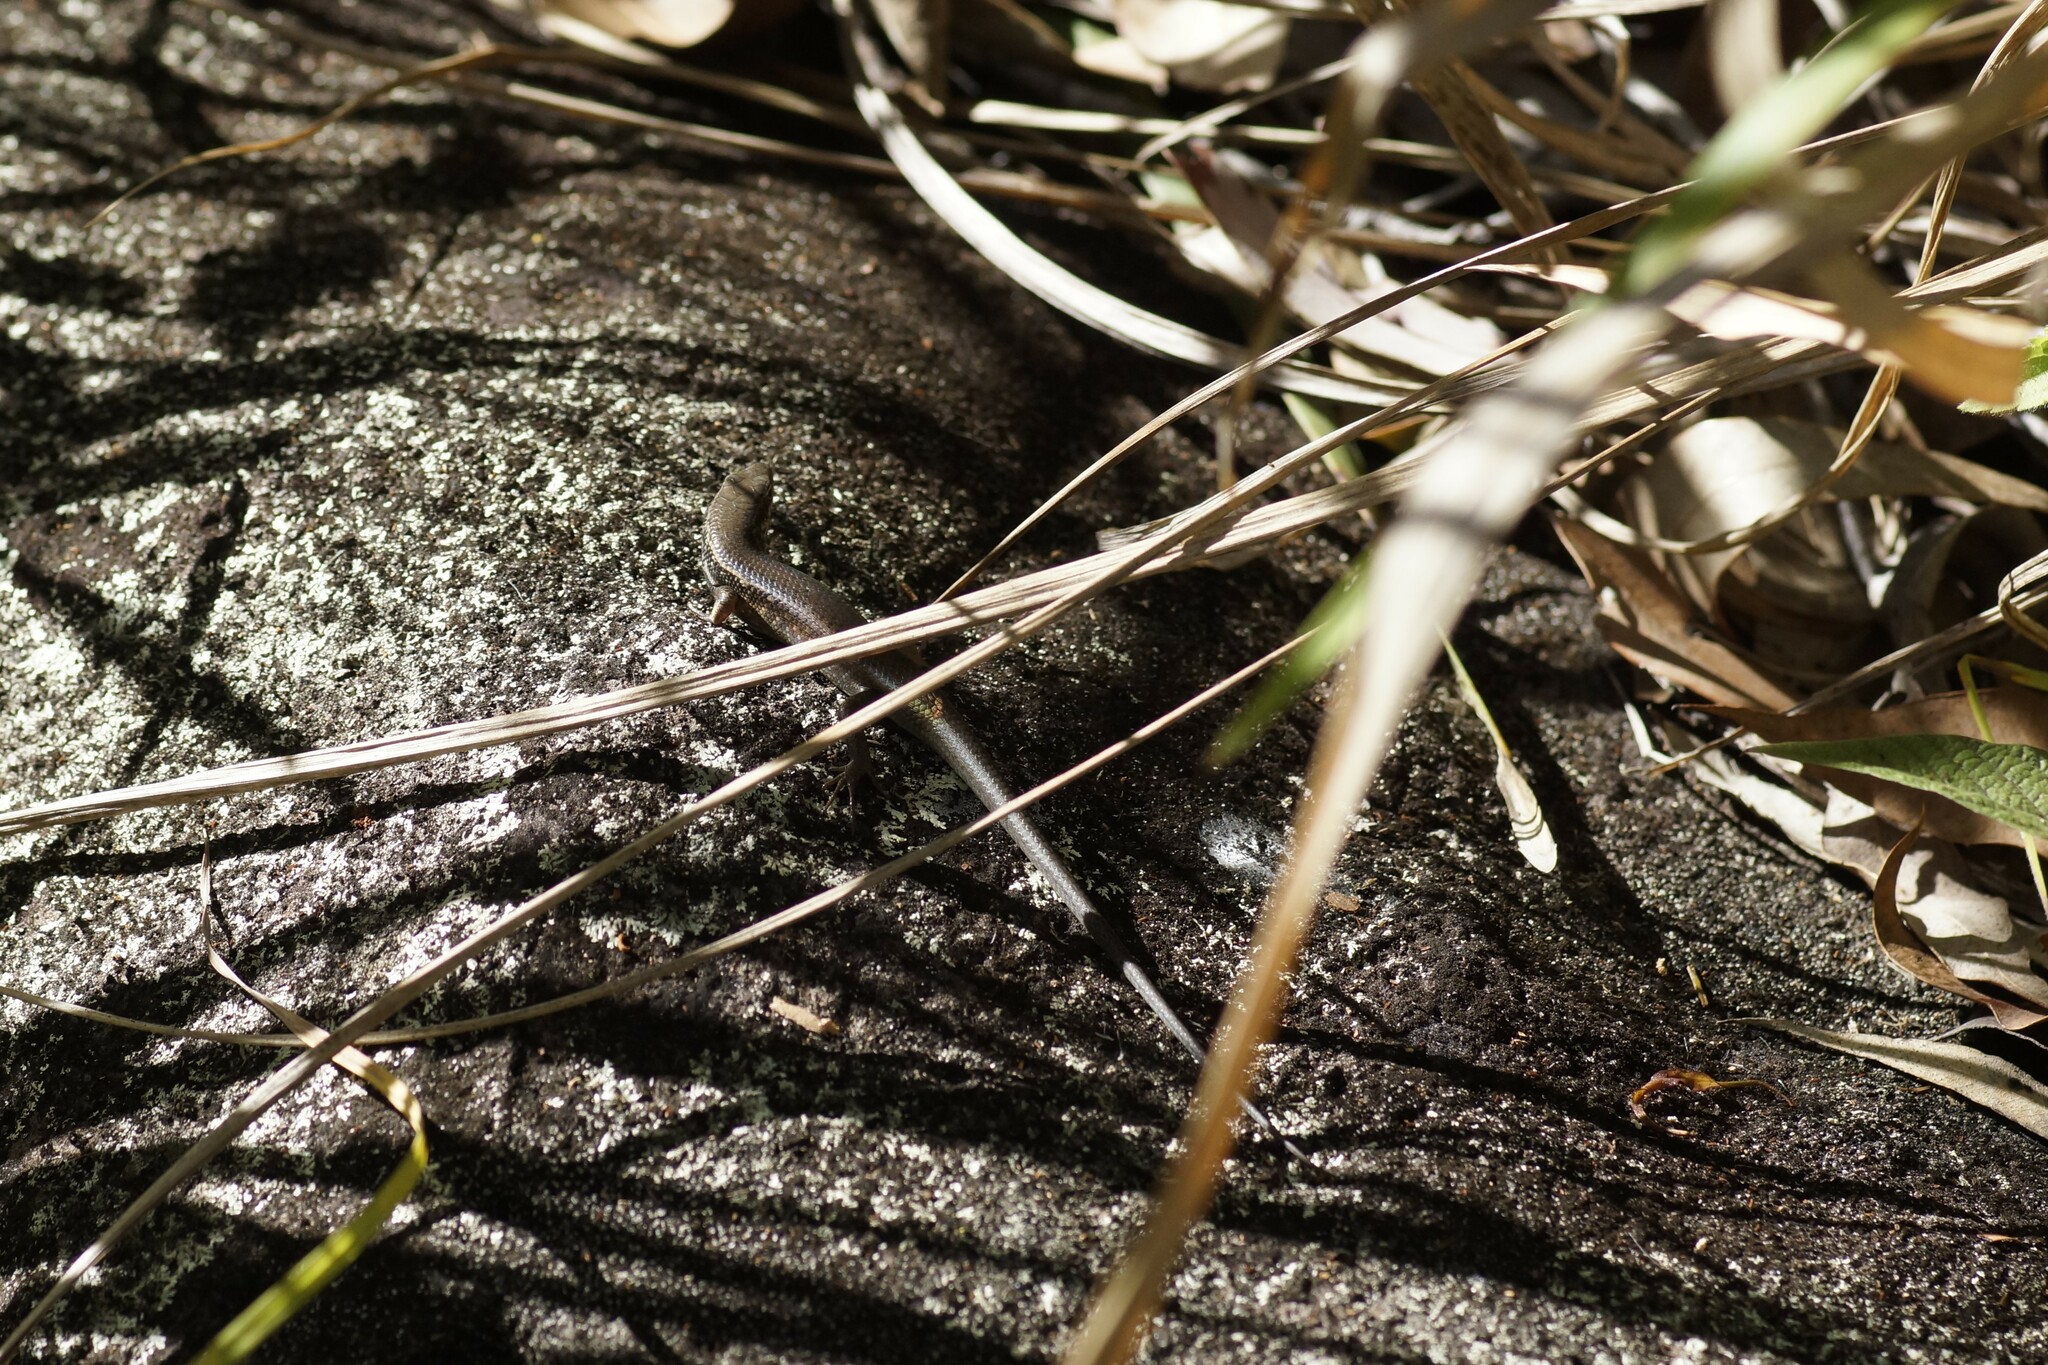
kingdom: Animalia
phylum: Chordata
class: Squamata
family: Scincidae
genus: Carlia
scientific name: Carlia rostralis
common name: Black-throated rainbow-skink
